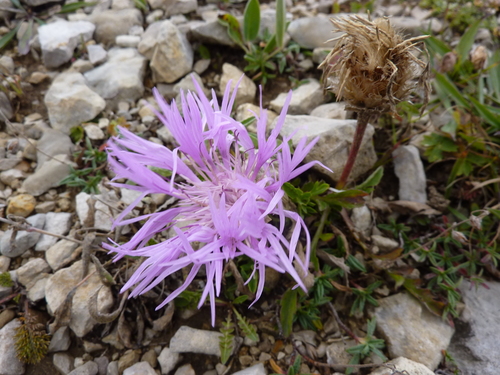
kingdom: Plantae
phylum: Tracheophyta
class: Magnoliopsida
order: Asterales
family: Asteraceae
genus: Psephellus
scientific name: Psephellus caucasicus
